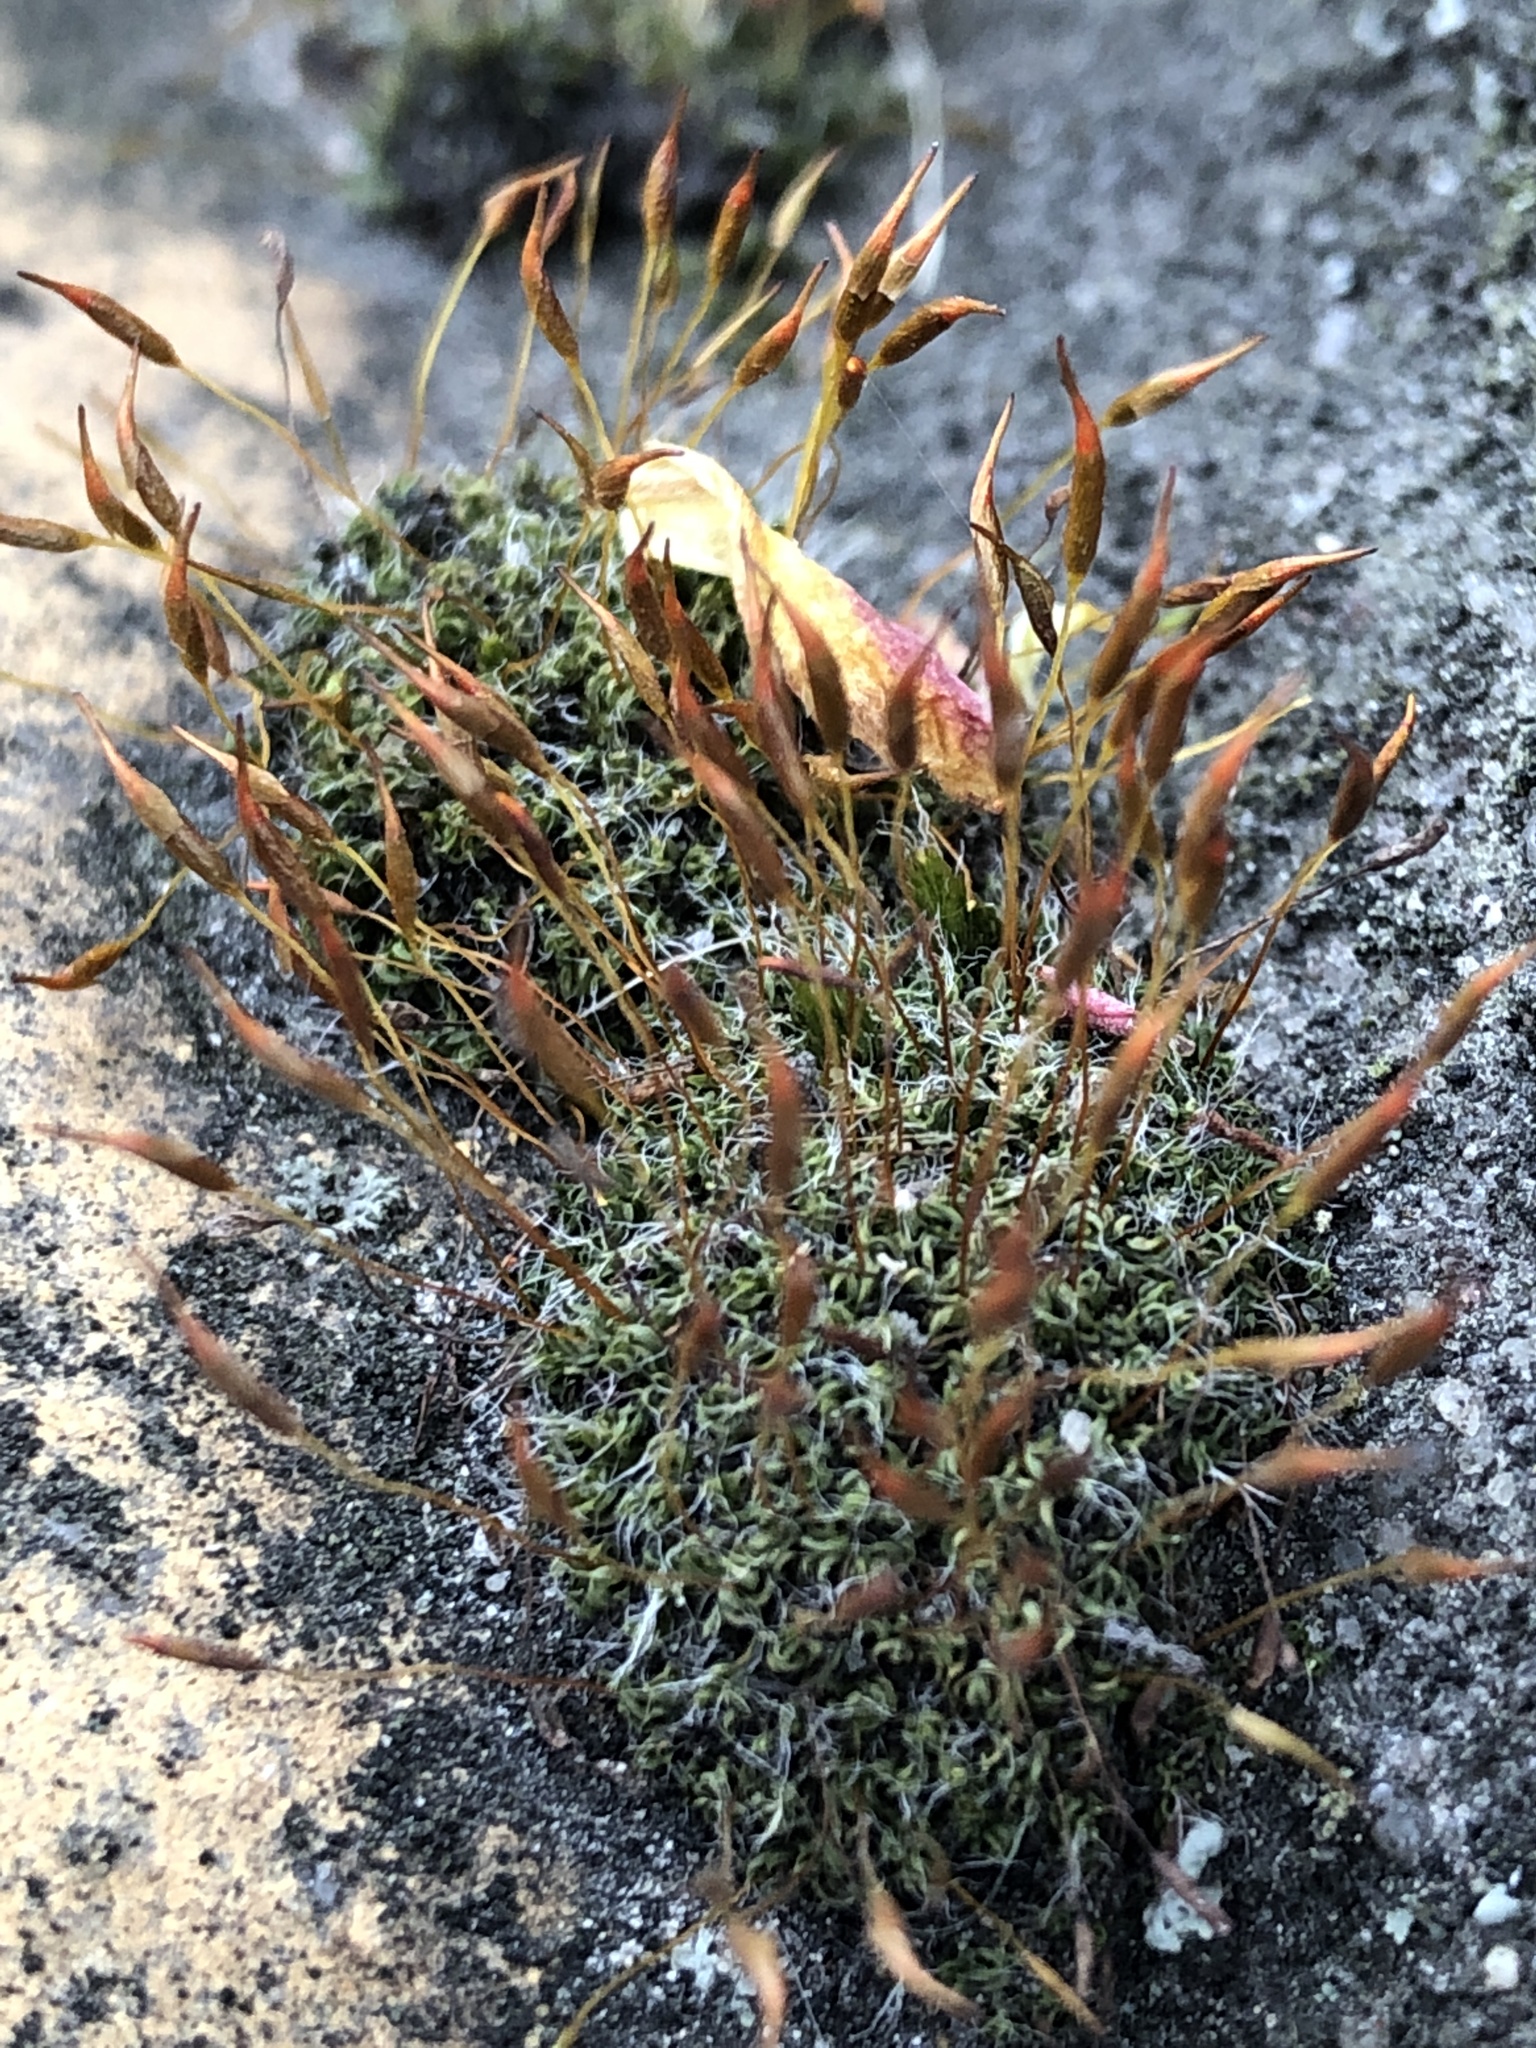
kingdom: Plantae
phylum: Bryophyta
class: Bryopsida
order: Pottiales
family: Pottiaceae
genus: Tortula
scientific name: Tortula muralis
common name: Wall screw-moss
